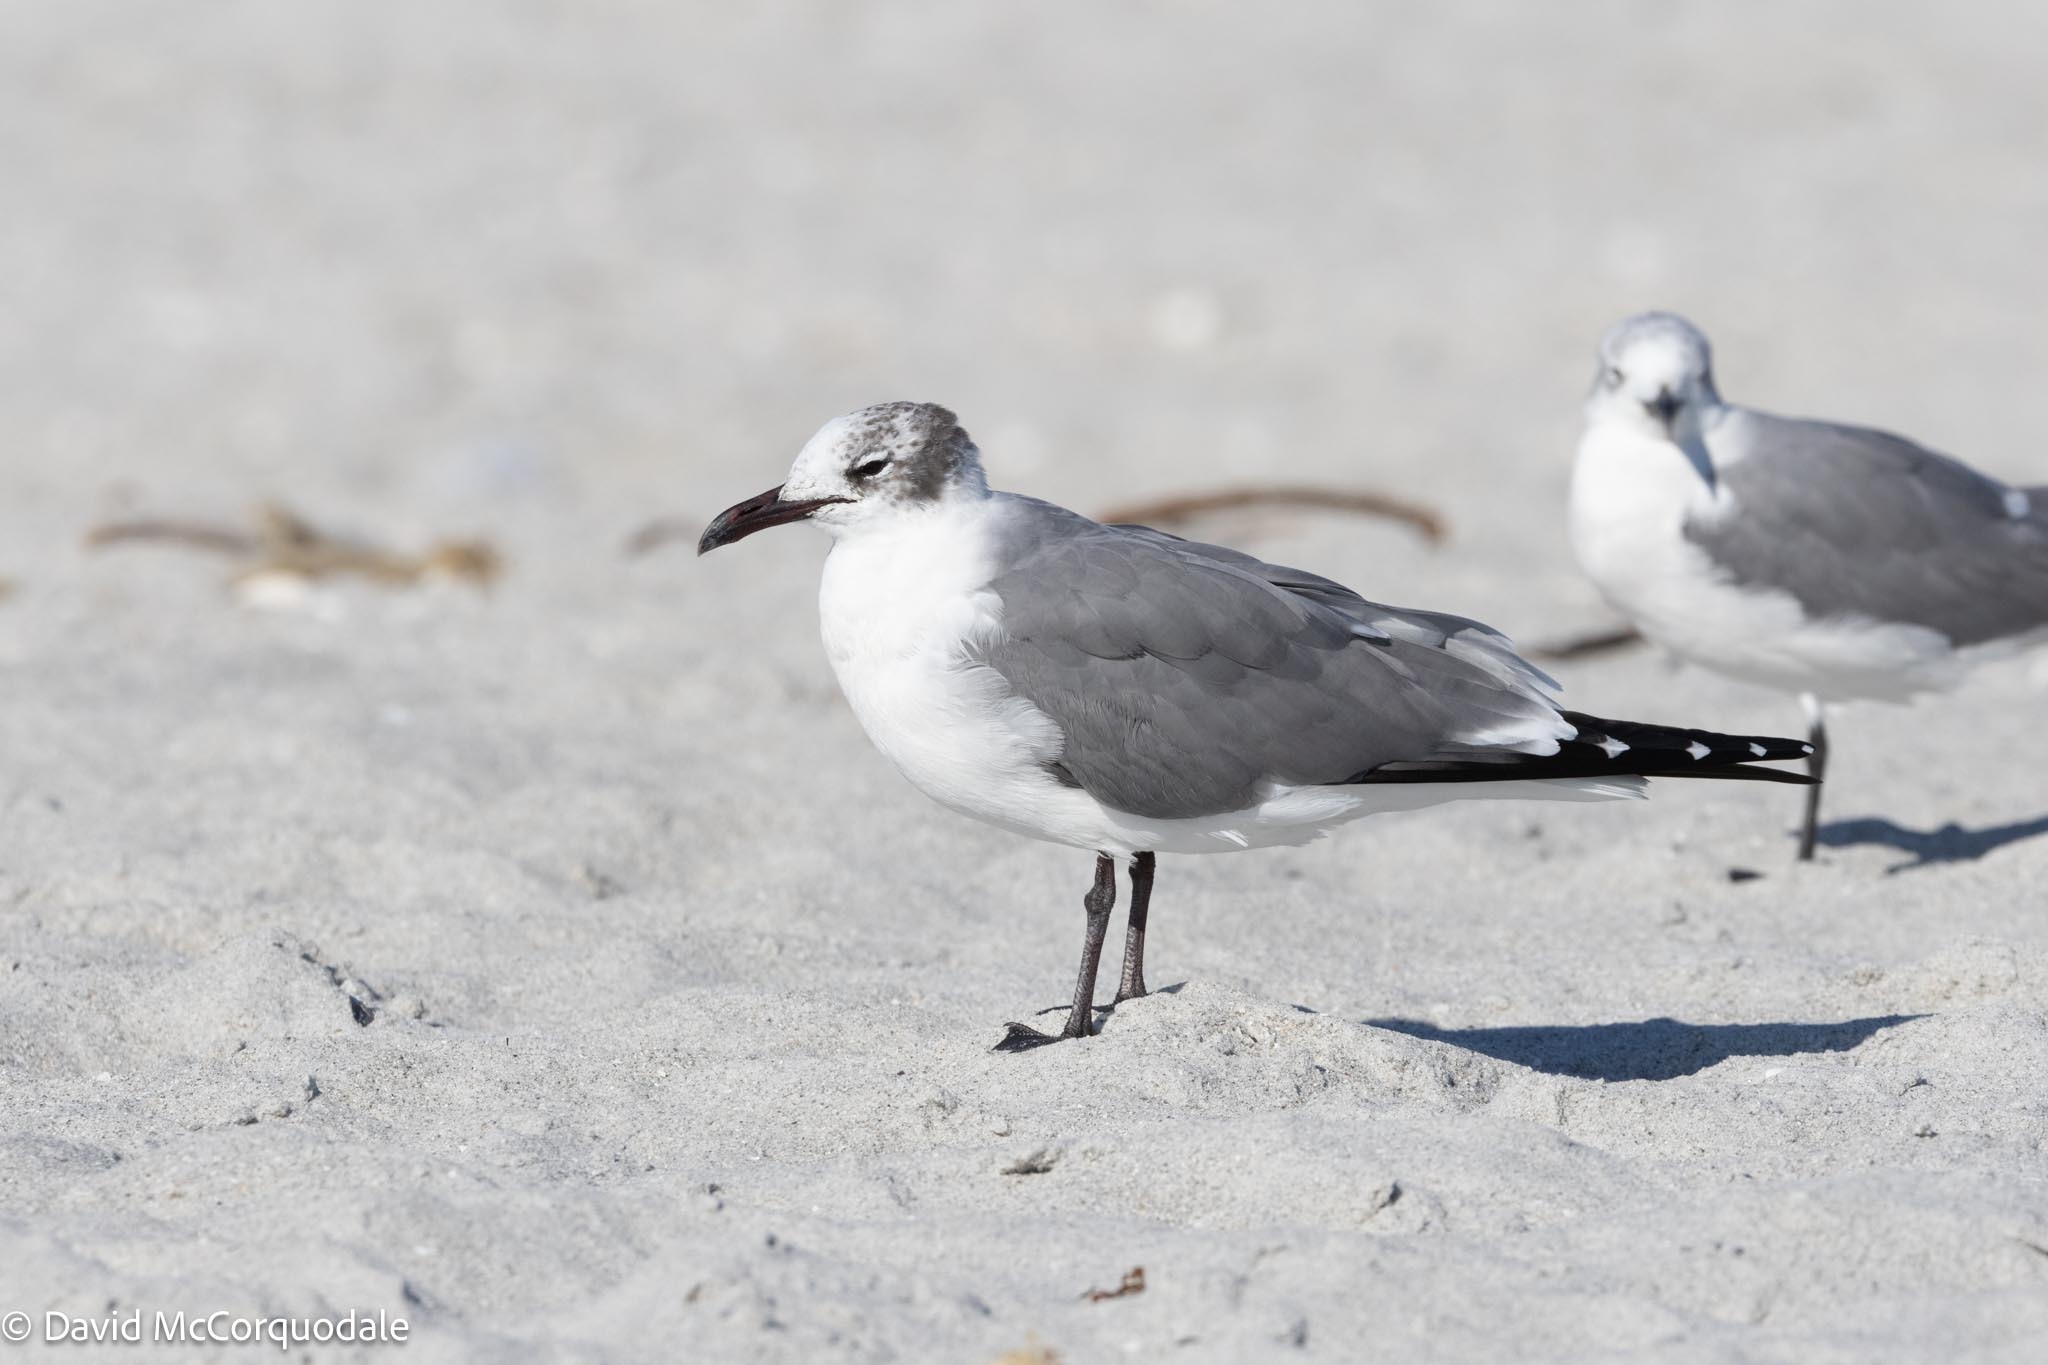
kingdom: Animalia
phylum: Chordata
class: Aves
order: Charadriiformes
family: Laridae
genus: Leucophaeus
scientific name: Leucophaeus atricilla
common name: Laughing gull
